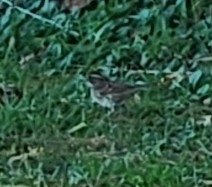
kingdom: Animalia
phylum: Chordata
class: Aves
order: Passeriformes
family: Passerellidae
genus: Zonotrichia
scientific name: Zonotrichia albicollis
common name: White-throated sparrow
